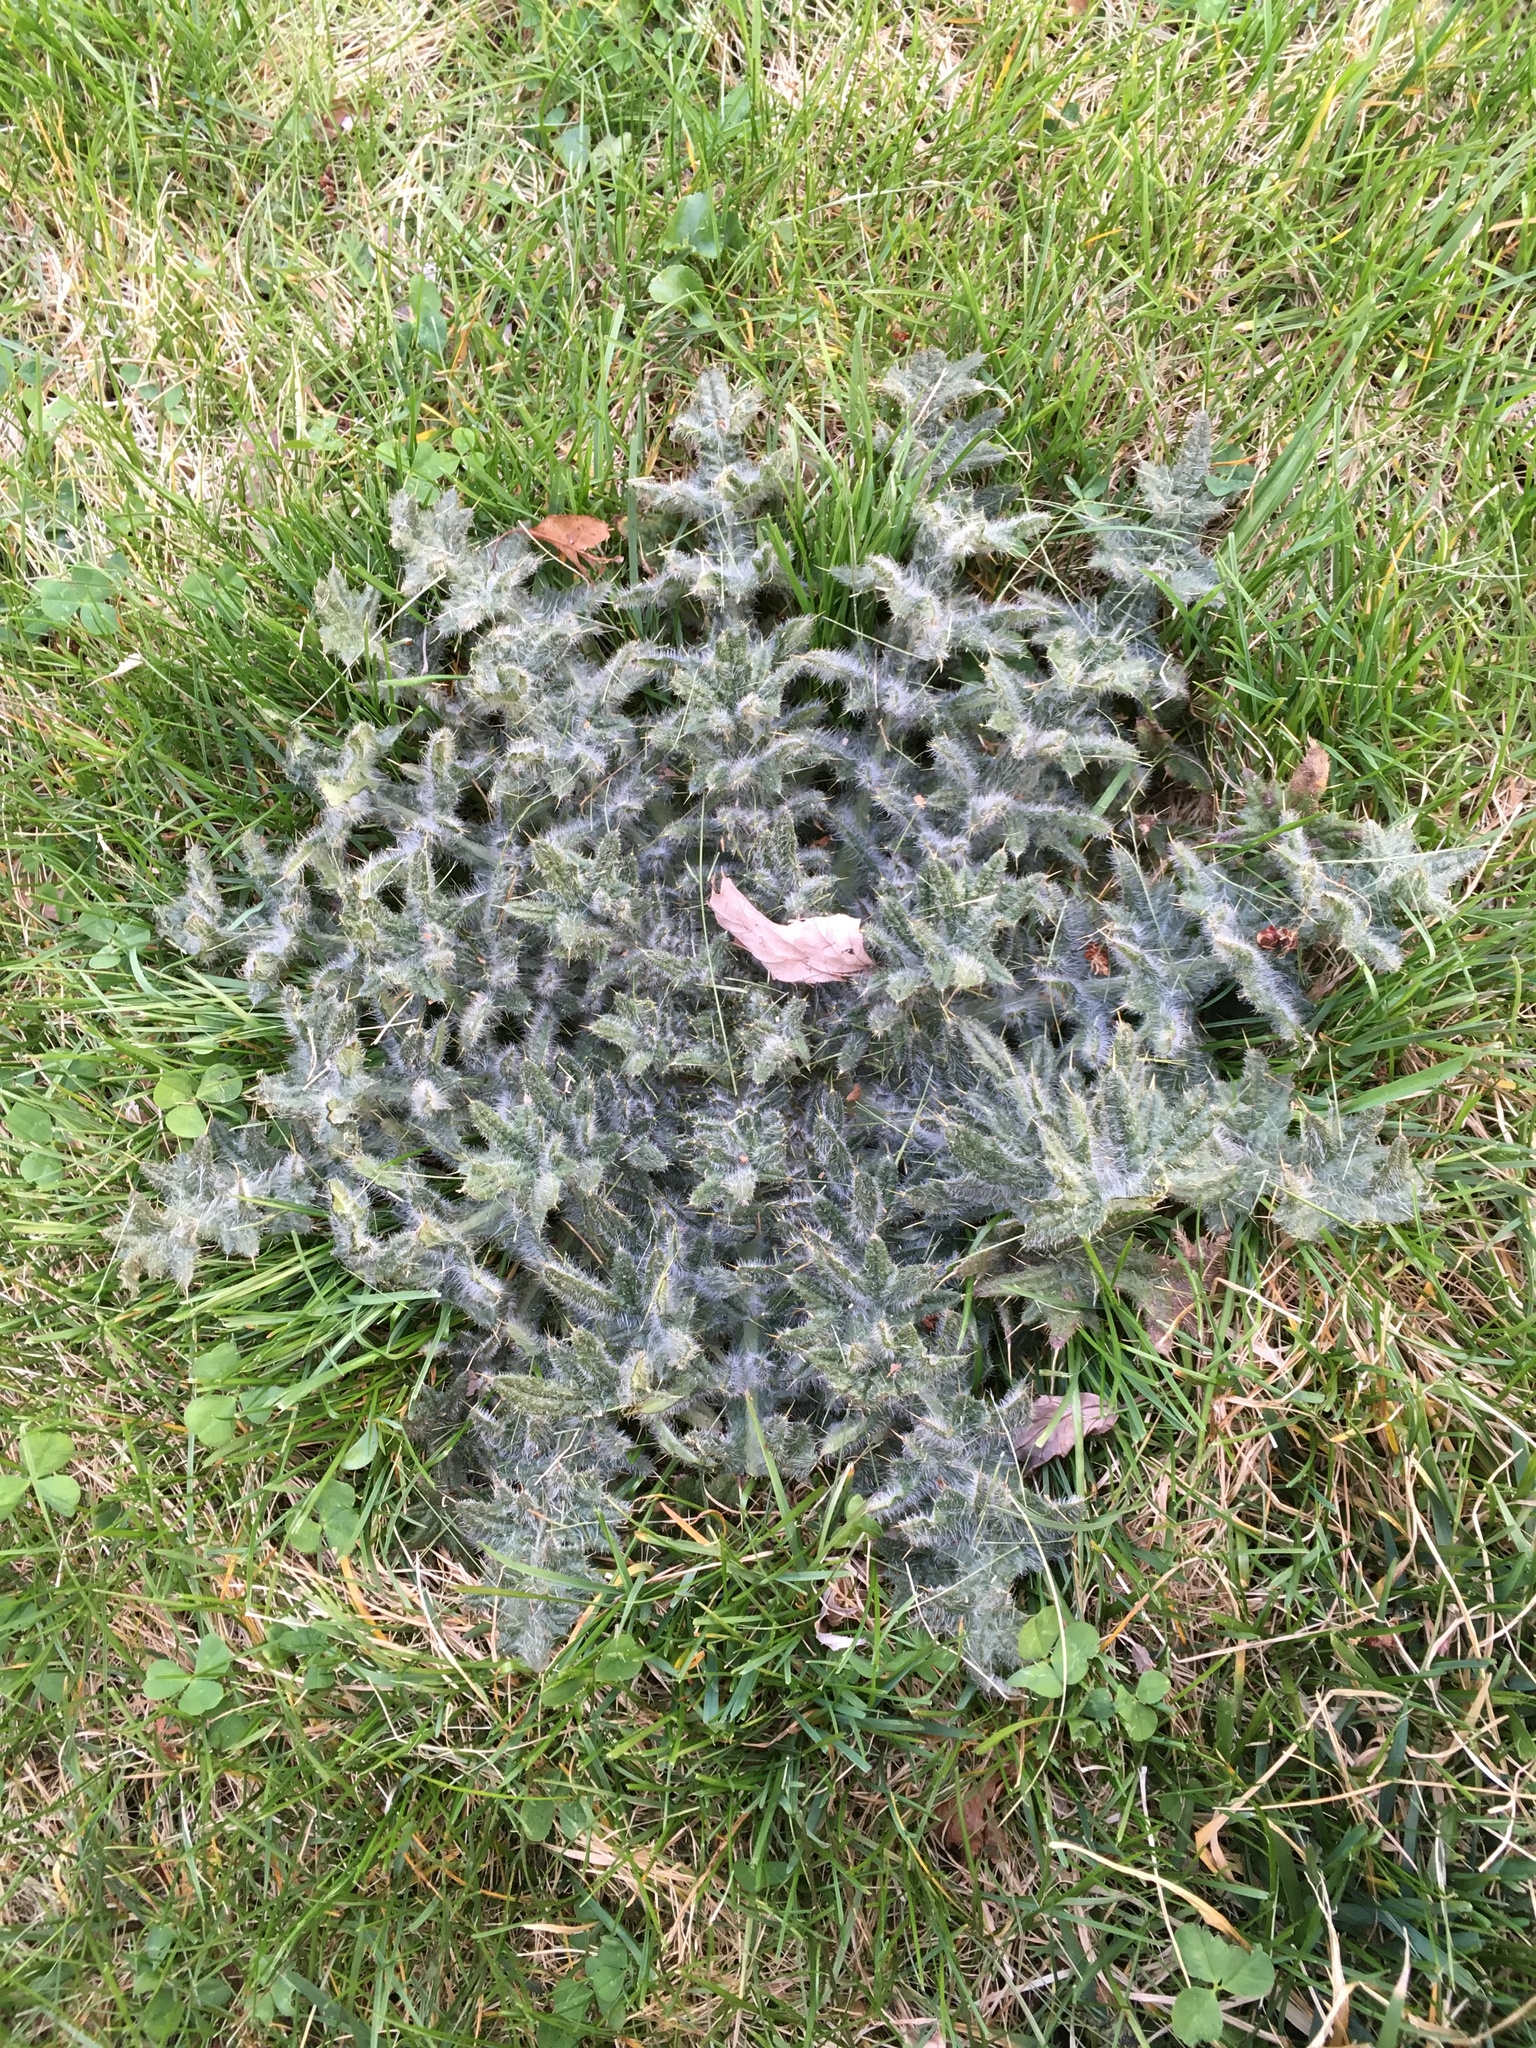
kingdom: Plantae
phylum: Tracheophyta
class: Magnoliopsida
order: Asterales
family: Asteraceae
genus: Cirsium
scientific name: Cirsium vulgare
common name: Bull thistle
